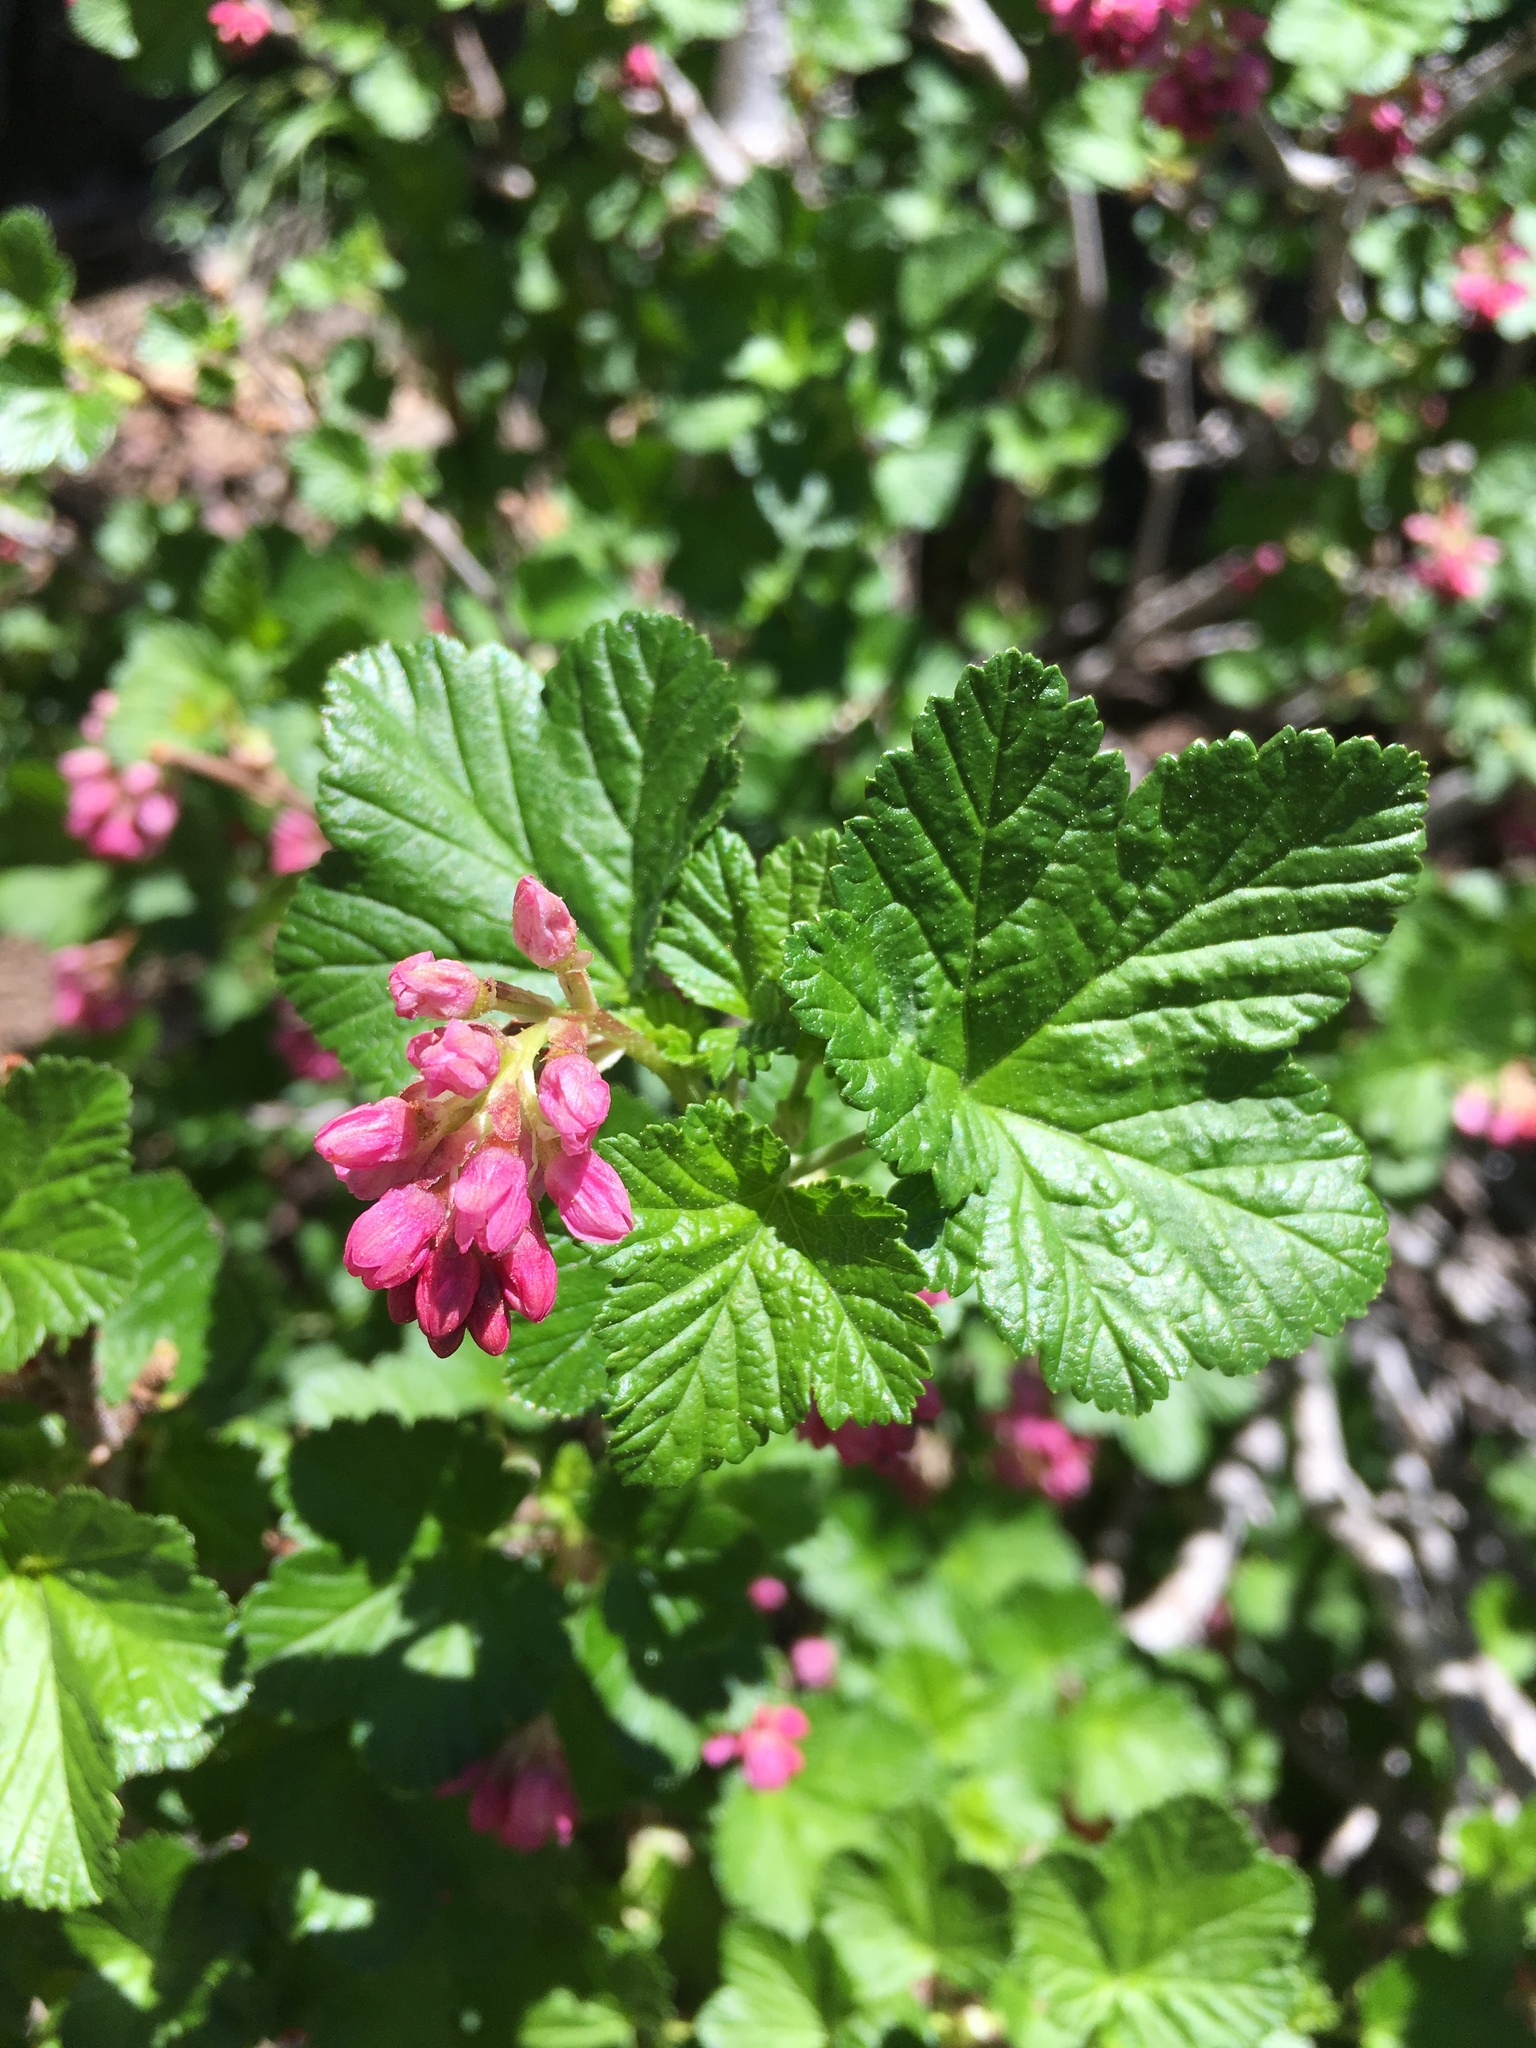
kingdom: Plantae
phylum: Tracheophyta
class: Magnoliopsida
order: Saxifragales
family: Grossulariaceae
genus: Ribes
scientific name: Ribes nevadense
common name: Mountain pink currant
